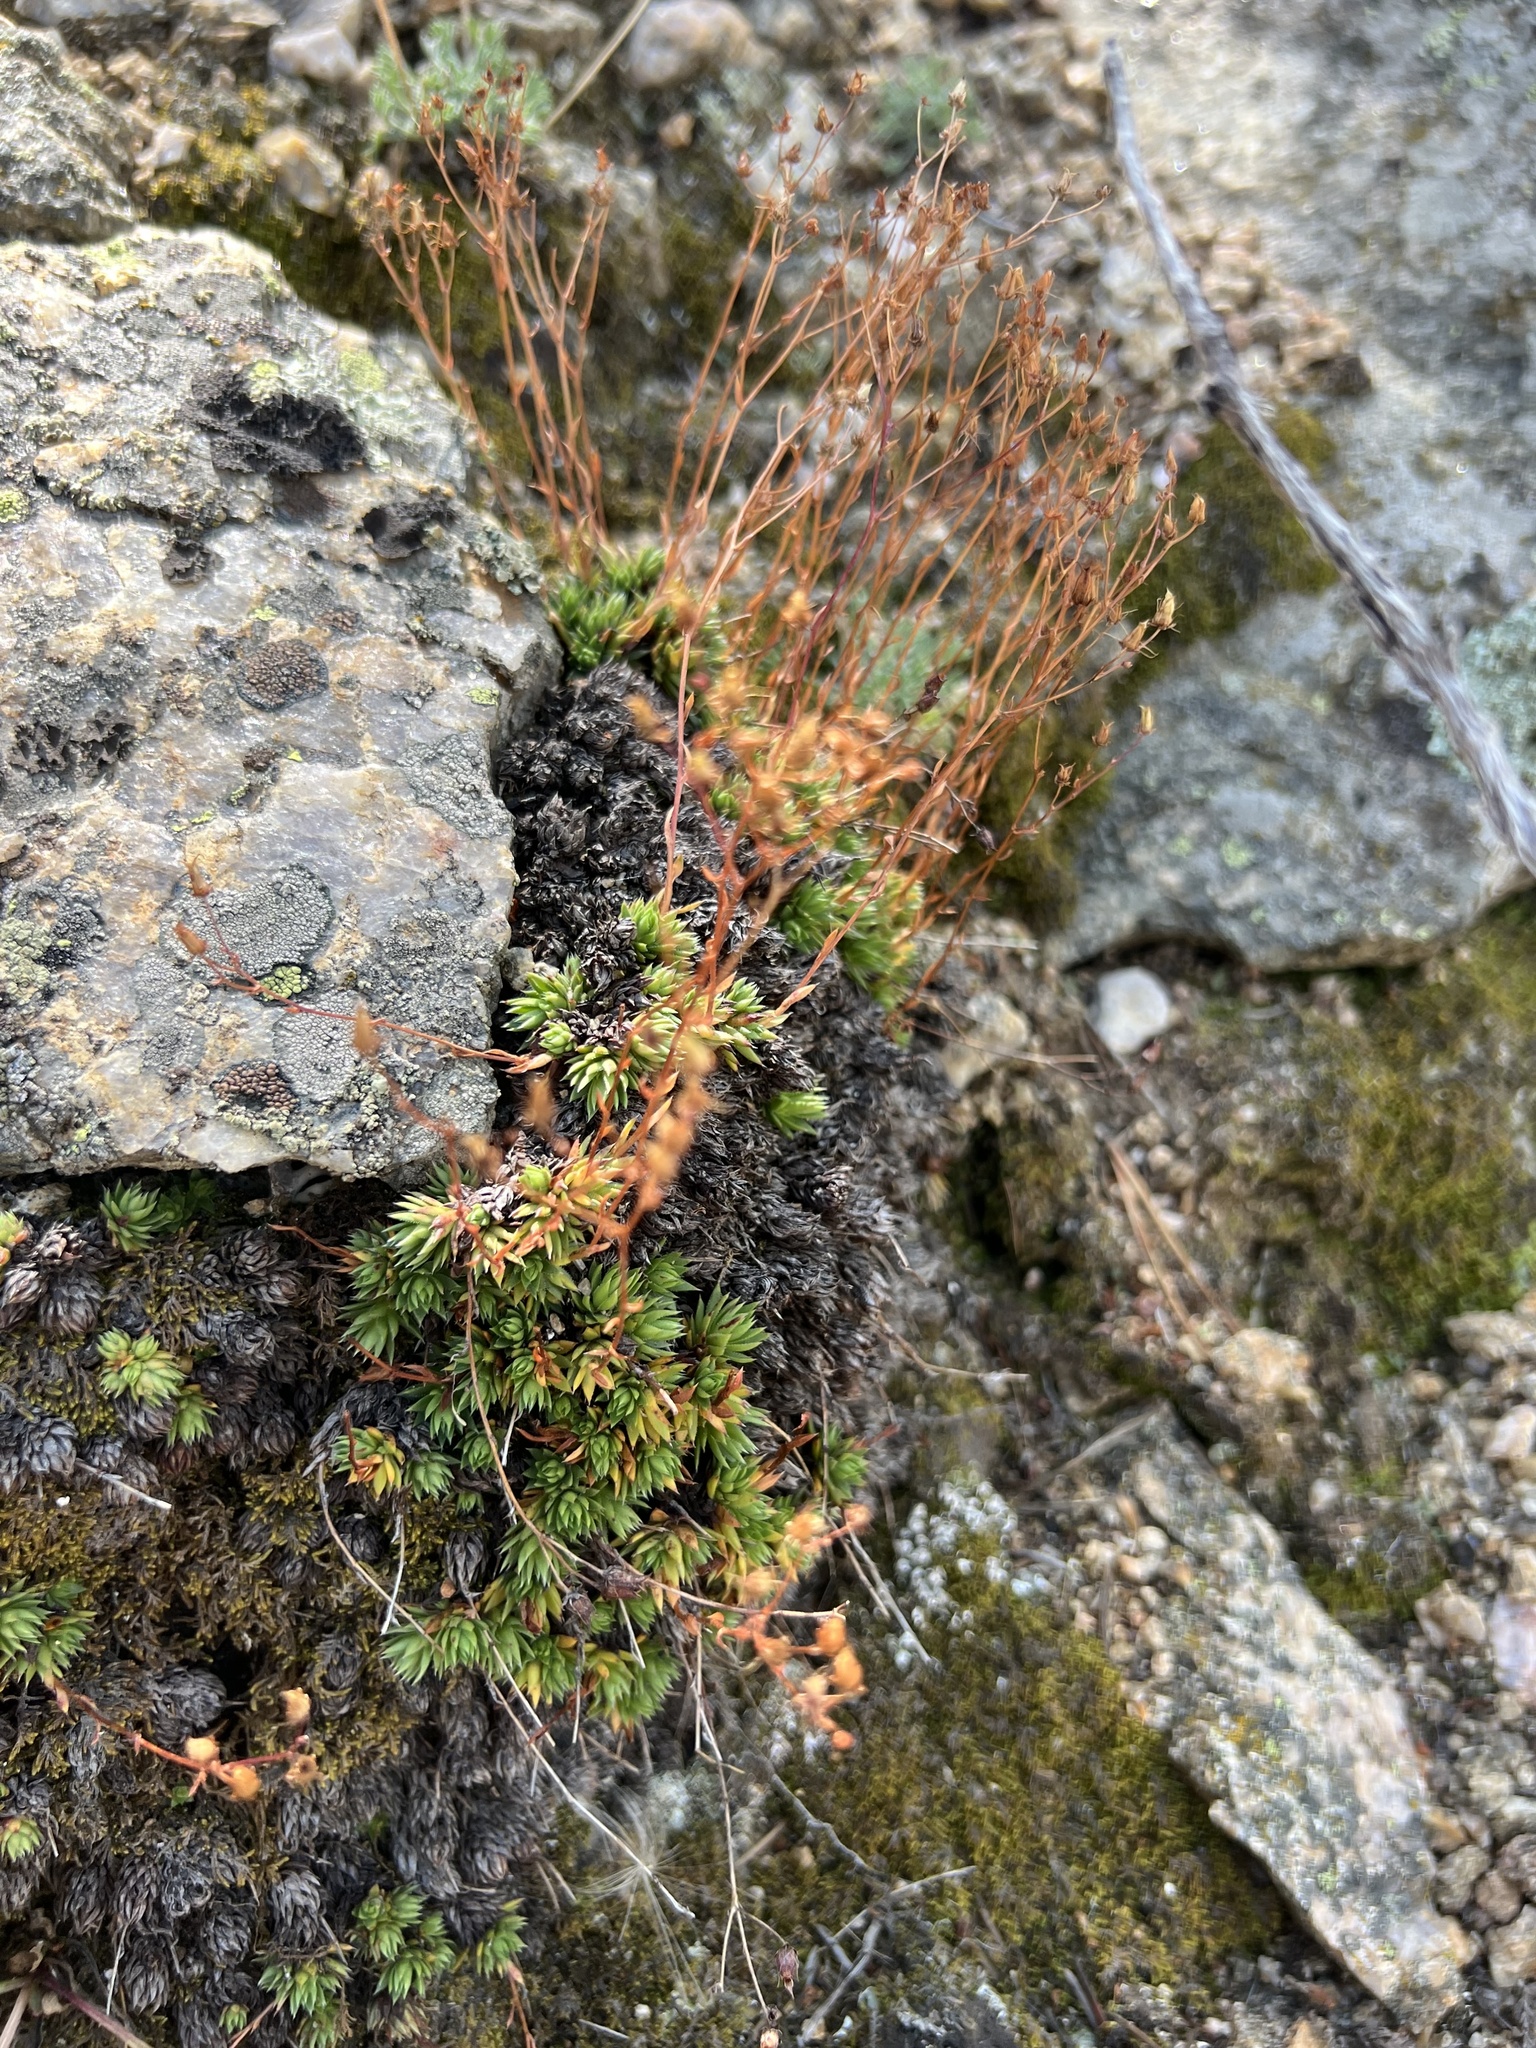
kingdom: Plantae
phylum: Tracheophyta
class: Magnoliopsida
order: Saxifragales
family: Saxifragaceae
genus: Saxifraga
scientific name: Saxifraga bronchialis
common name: Matted saxifrage
